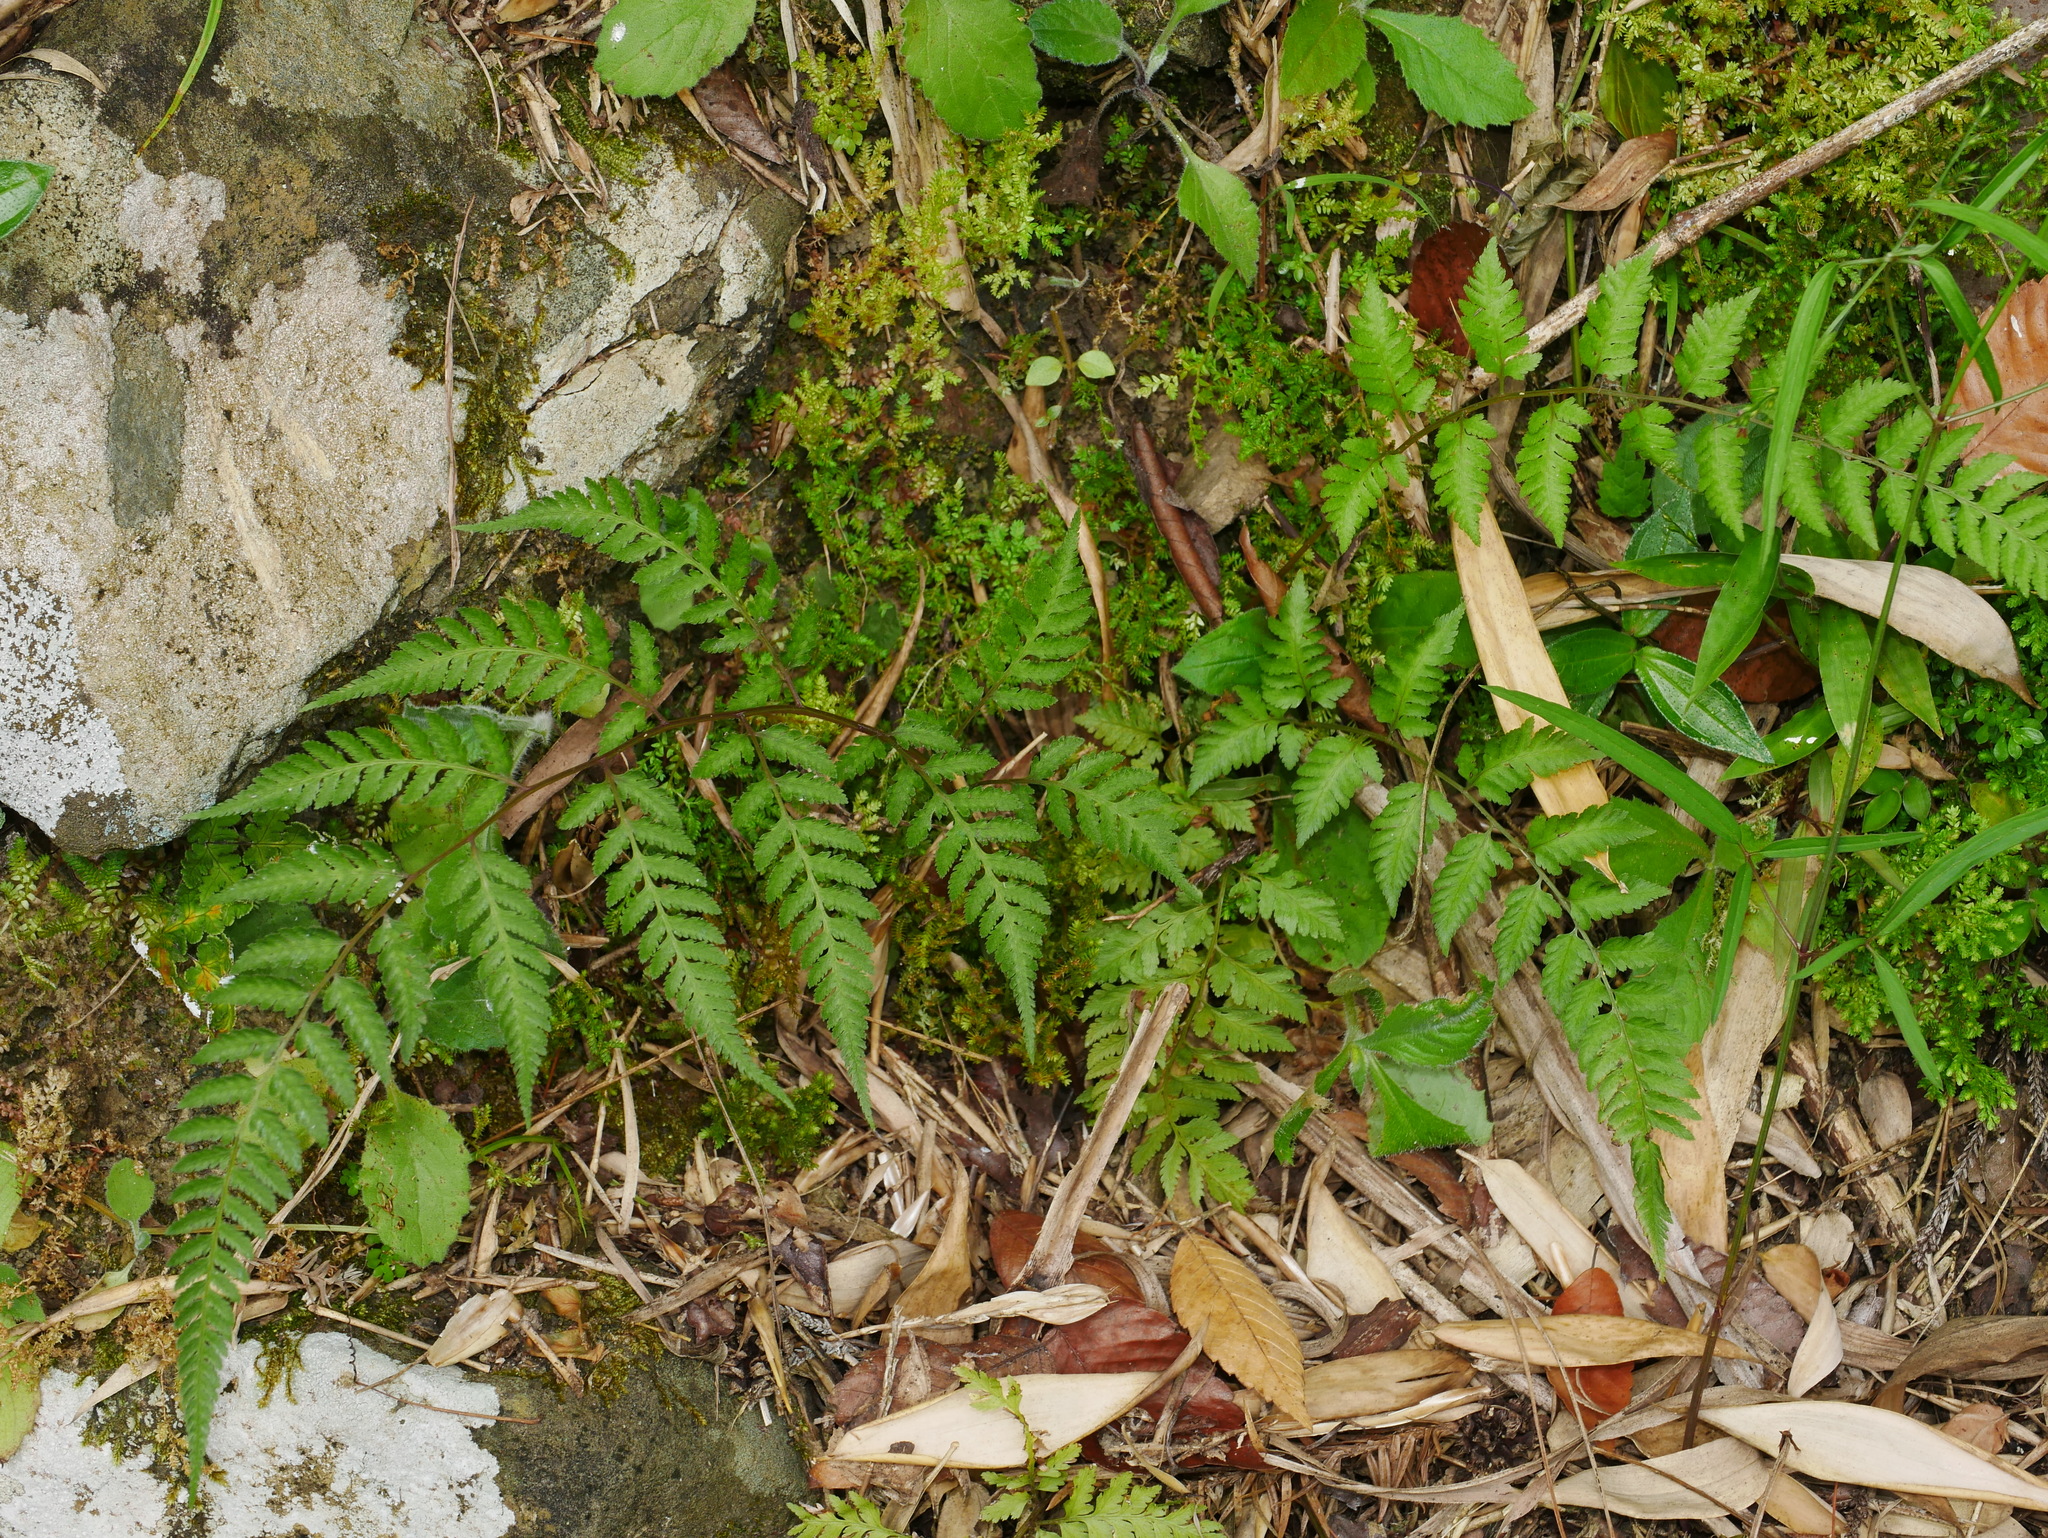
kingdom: Plantae
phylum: Tracheophyta
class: Polypodiopsida
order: Polypodiales
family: Athyriaceae
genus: Anisocampium
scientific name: Anisocampium niponicum
